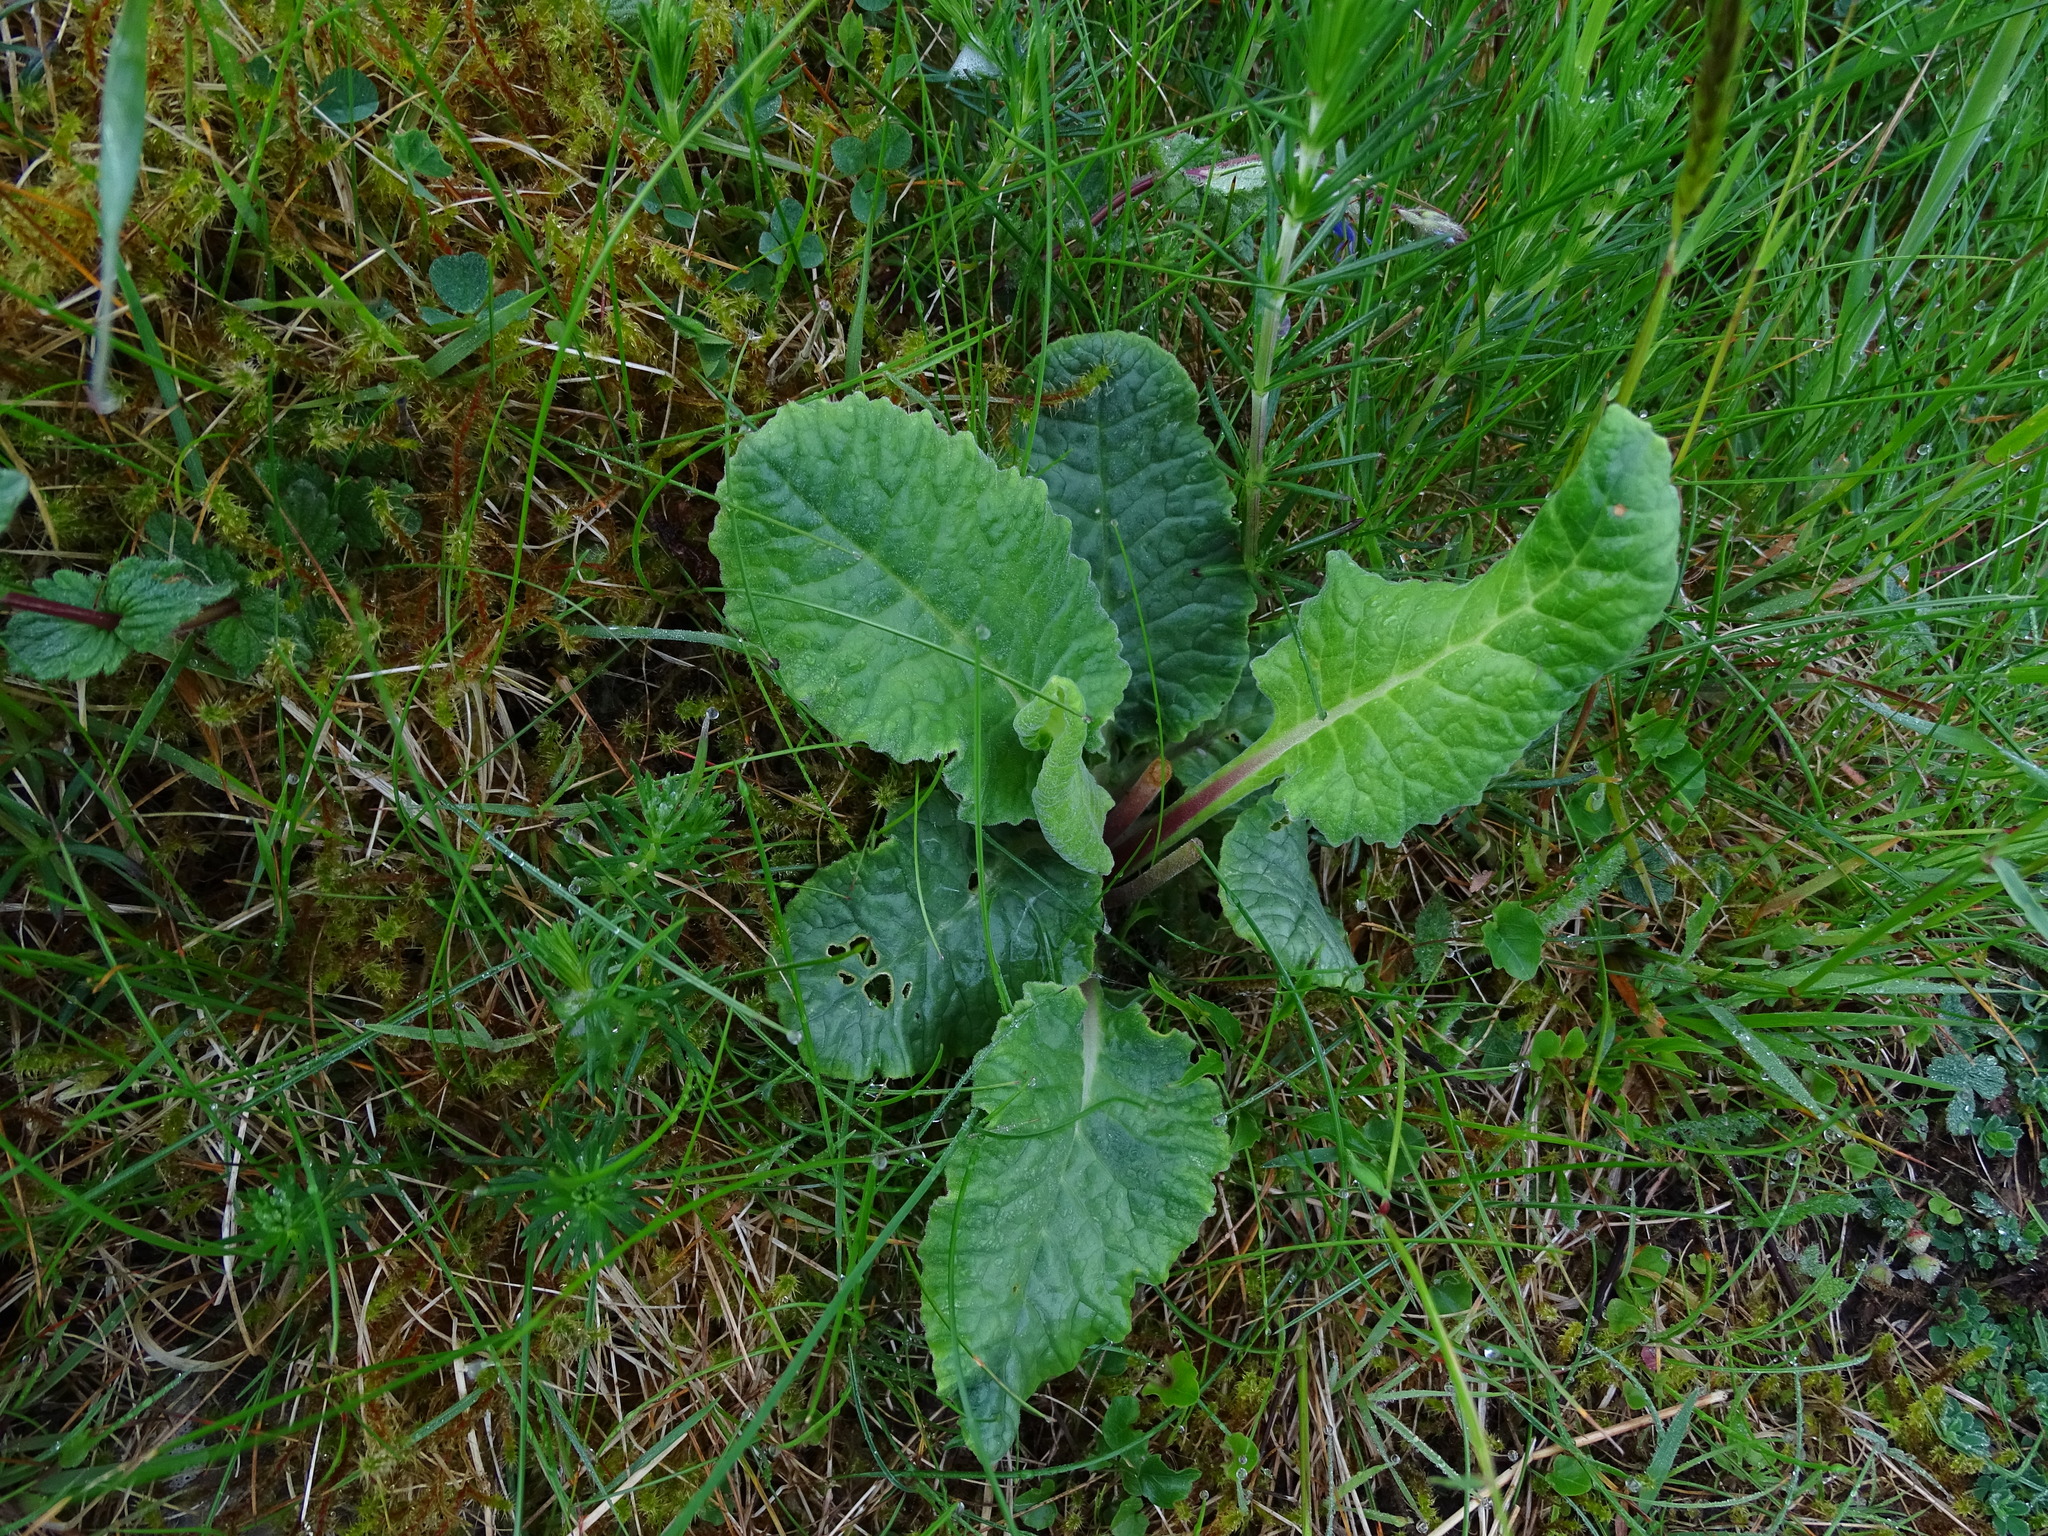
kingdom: Plantae
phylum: Tracheophyta
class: Magnoliopsida
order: Ericales
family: Primulaceae
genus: Primula
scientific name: Primula veris
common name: Cowslip
